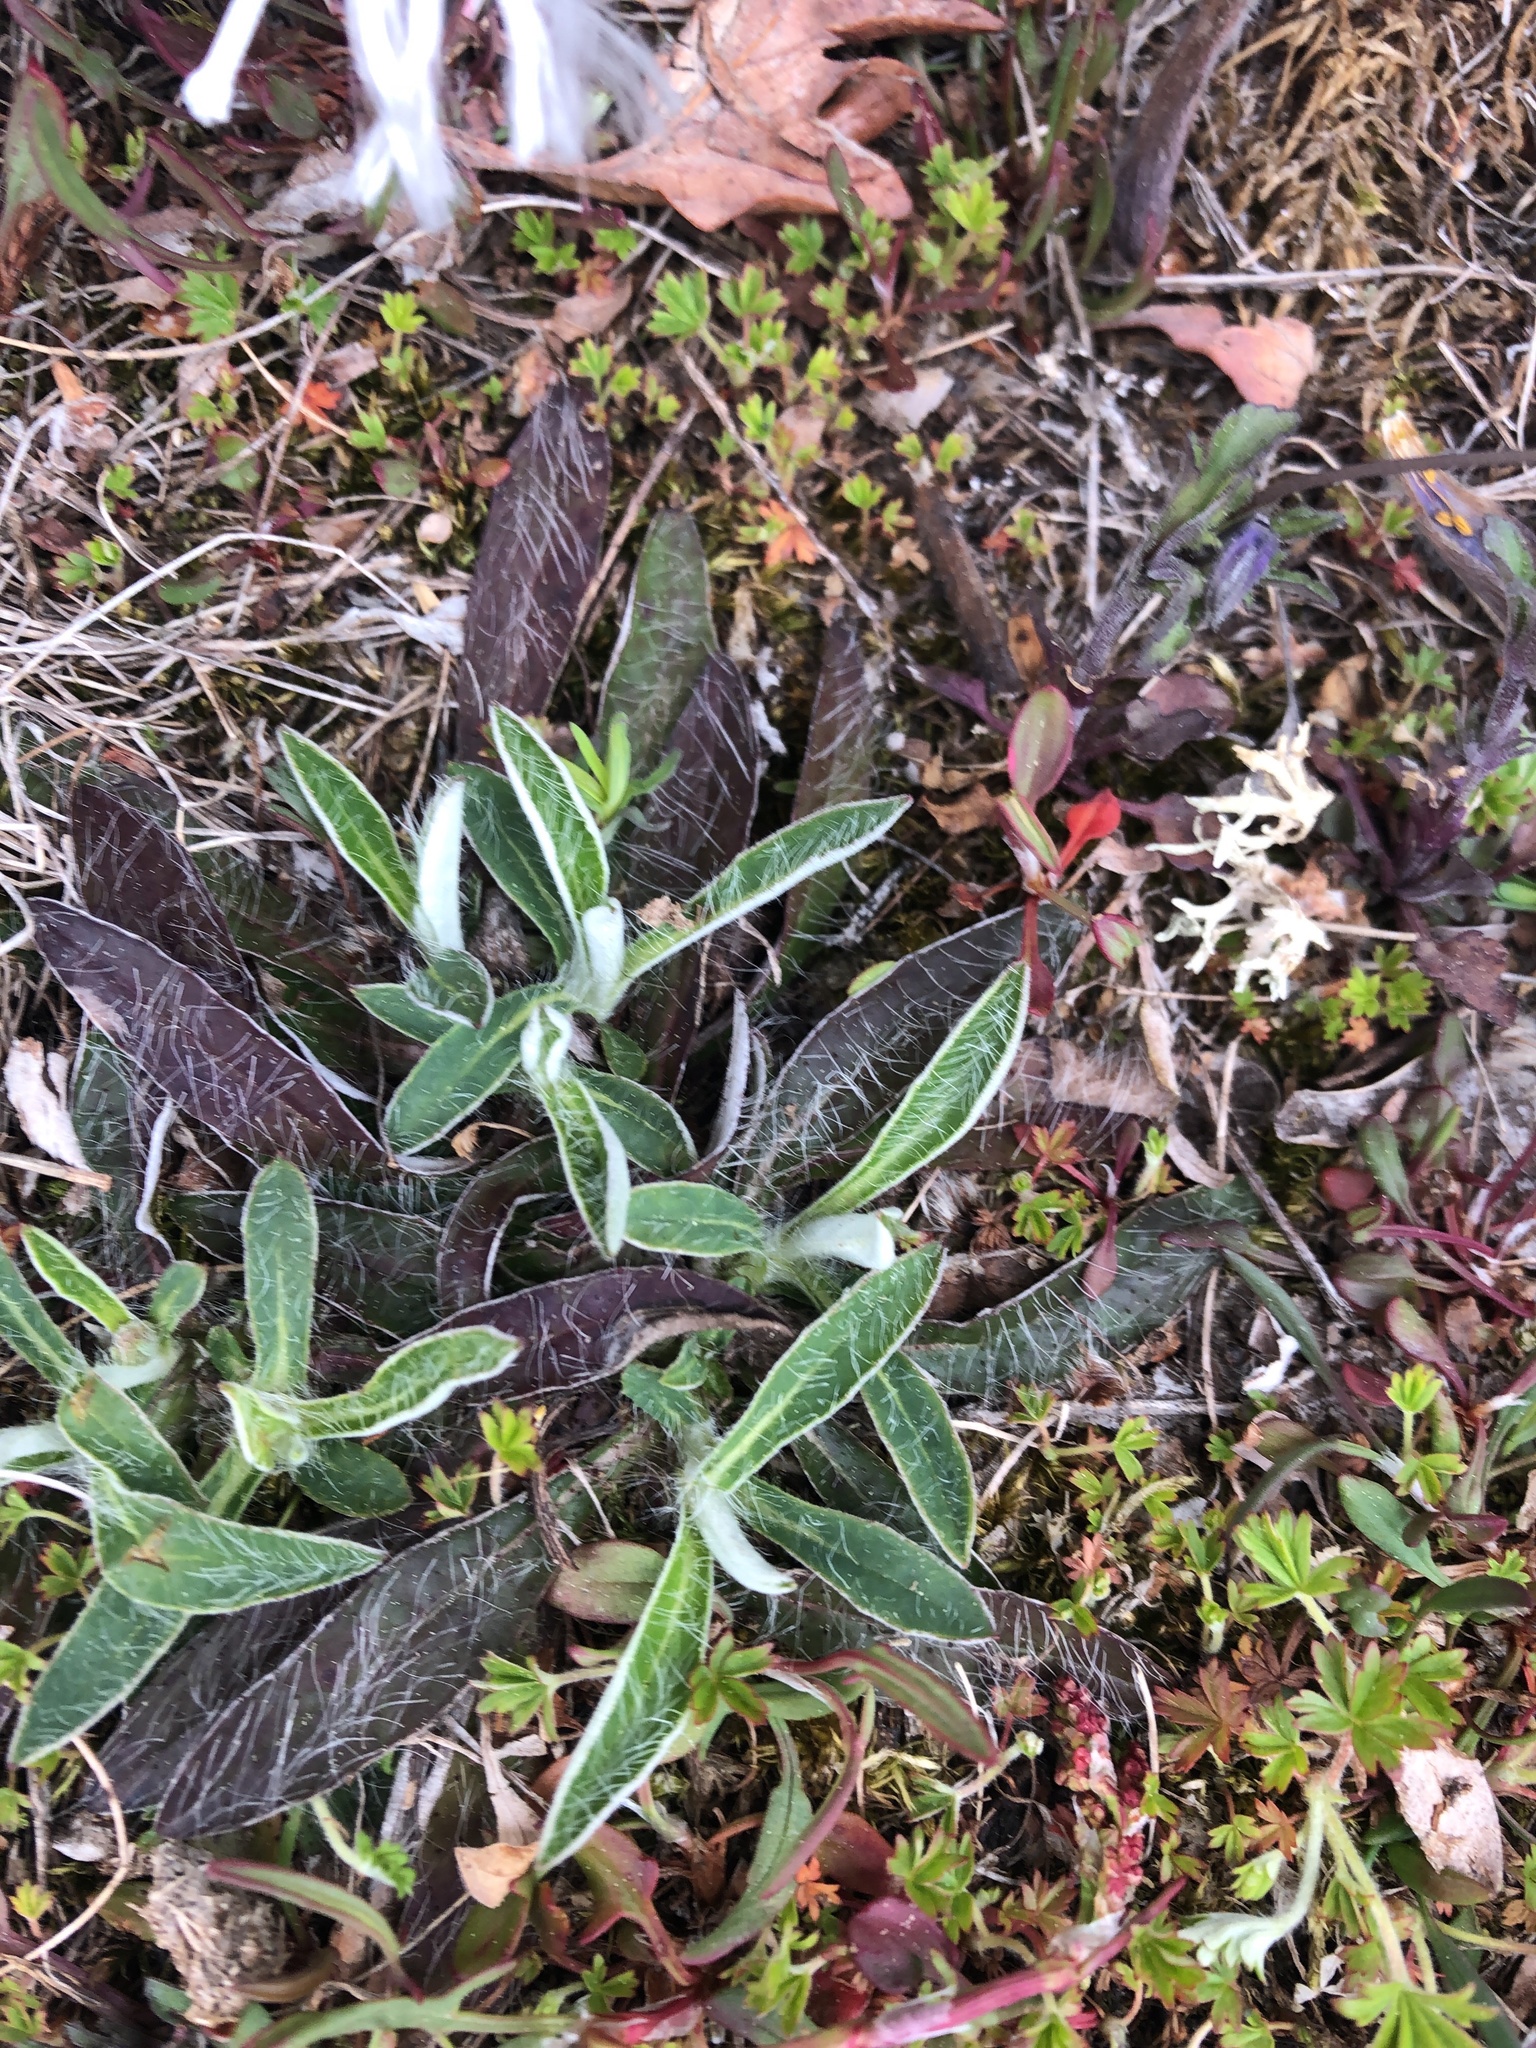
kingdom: Plantae
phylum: Tracheophyta
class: Magnoliopsida
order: Asterales
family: Asteraceae
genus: Pilosella
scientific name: Pilosella officinarum
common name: Mouse-ear hawkweed
